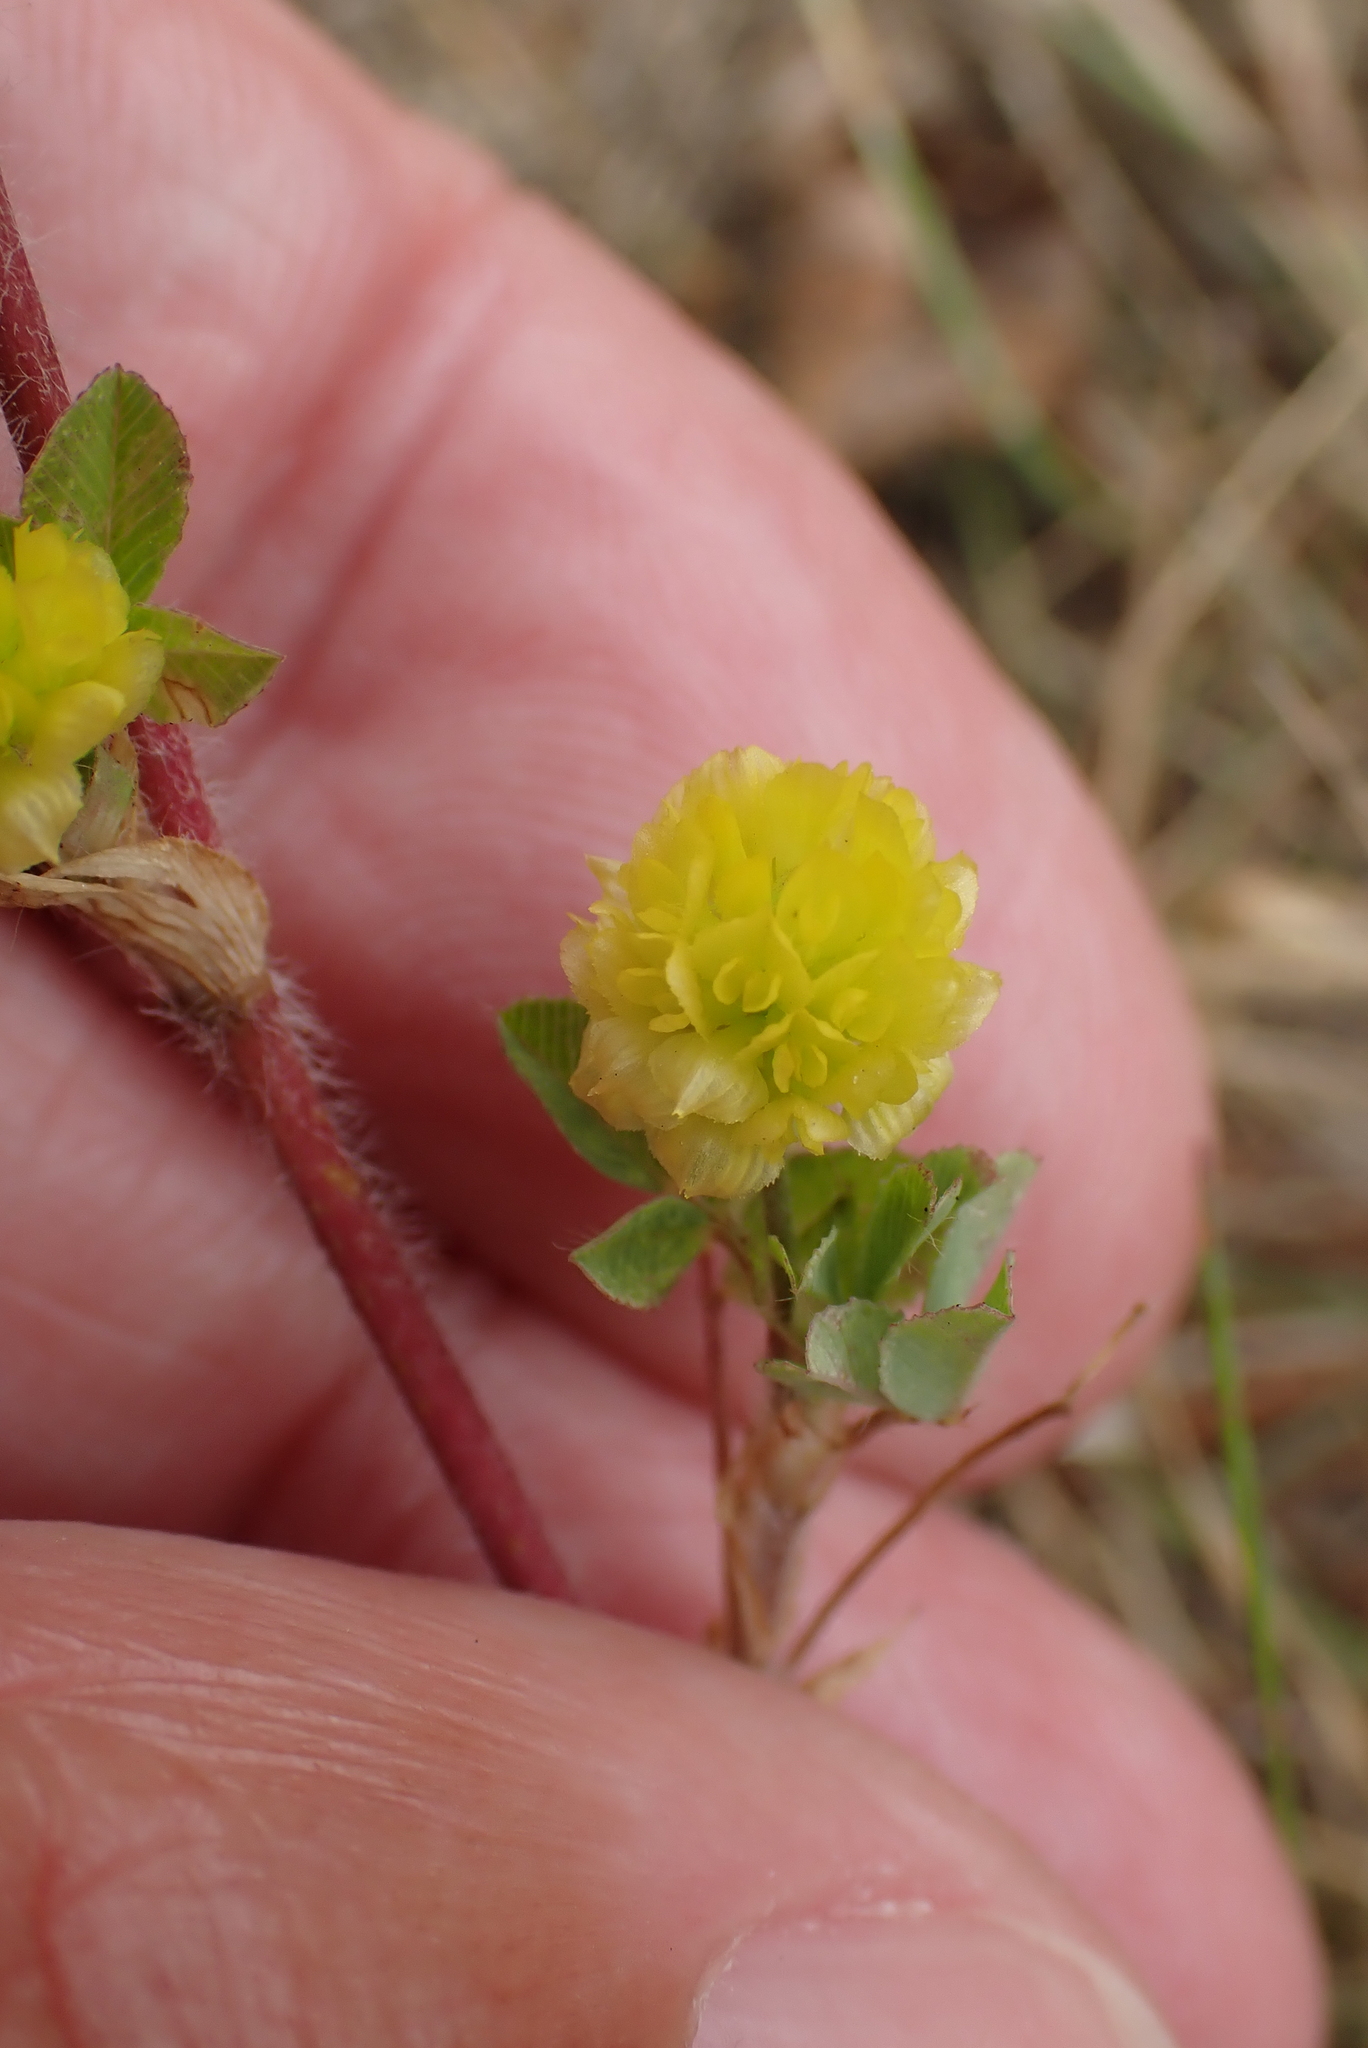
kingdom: Plantae
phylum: Tracheophyta
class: Magnoliopsida
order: Fabales
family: Fabaceae
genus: Trifolium
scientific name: Trifolium campestre
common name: Field clover
